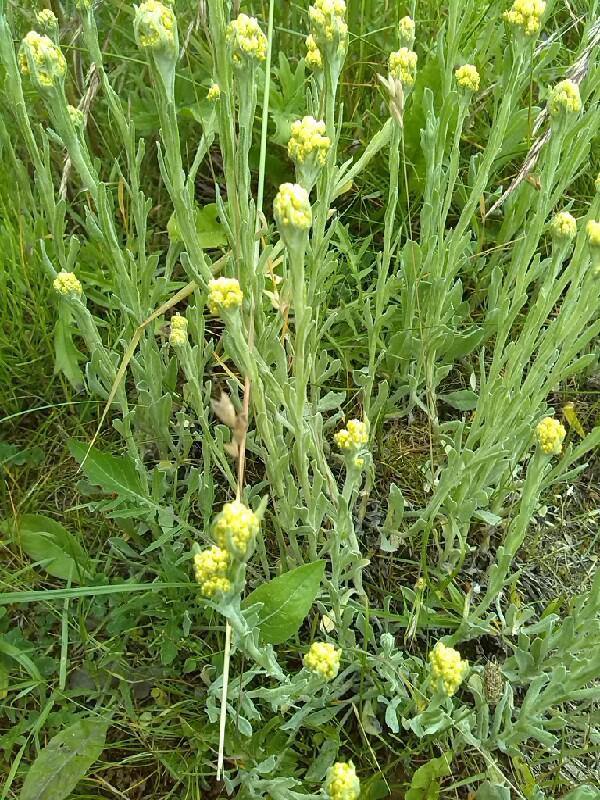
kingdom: Plantae
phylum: Tracheophyta
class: Magnoliopsida
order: Asterales
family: Asteraceae
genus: Helichrysum
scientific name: Helichrysum arenarium
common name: Strawflower
